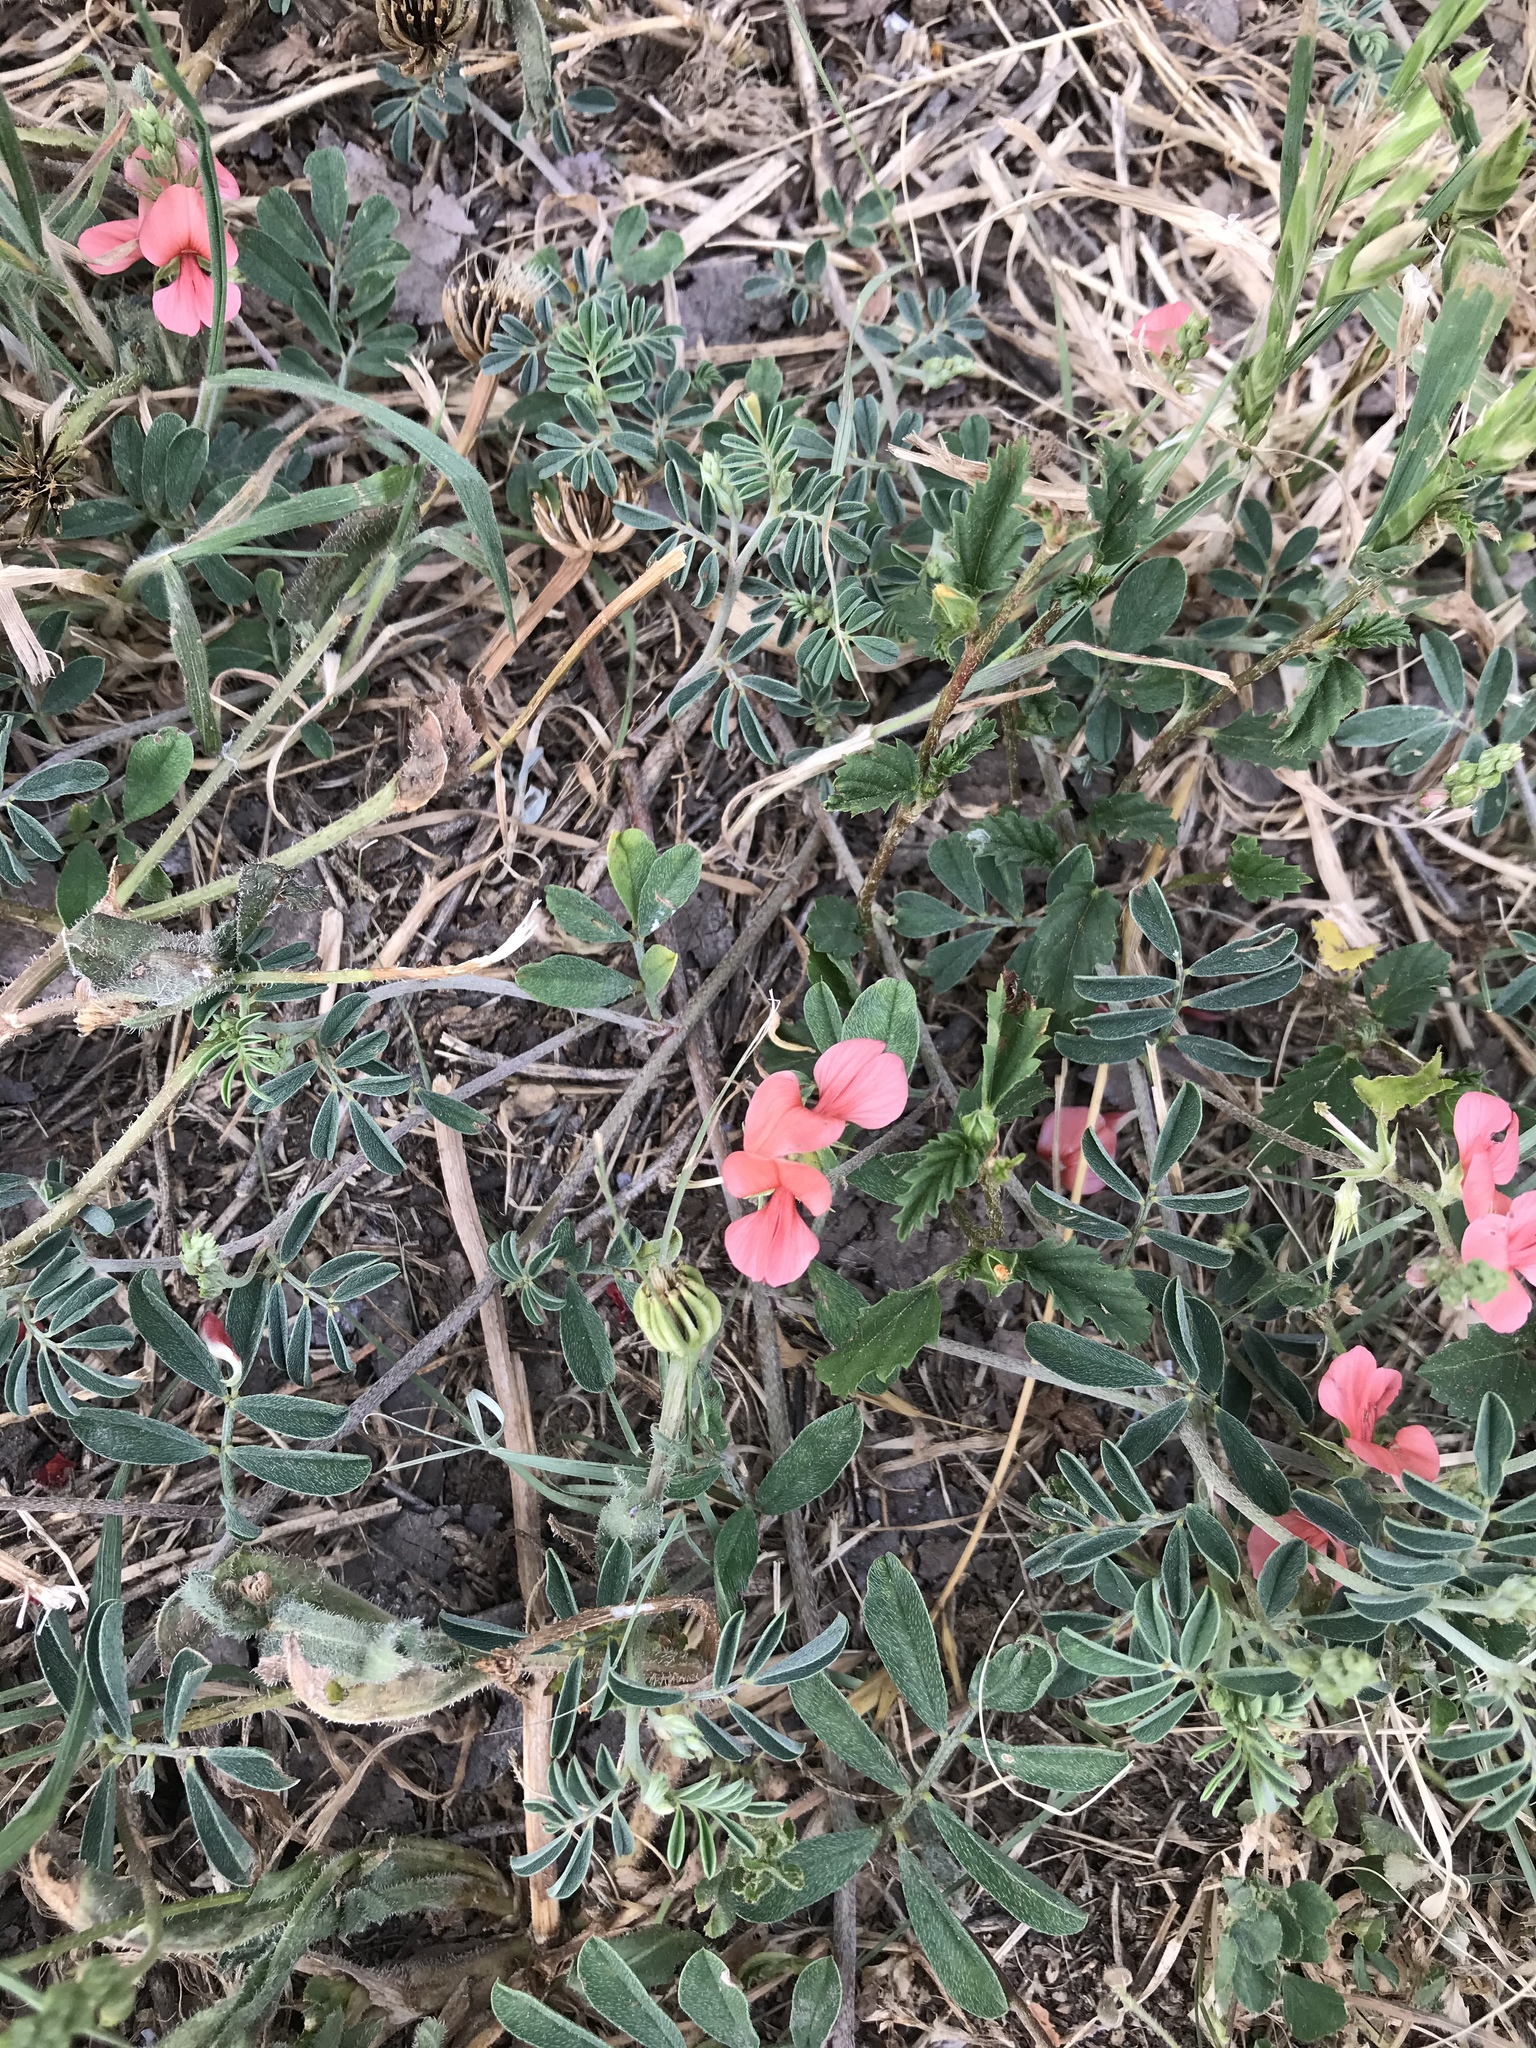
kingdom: Plantae
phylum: Tracheophyta
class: Magnoliopsida
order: Fabales
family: Fabaceae
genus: Indigofera
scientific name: Indigofera miniata
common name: Coast indigo
